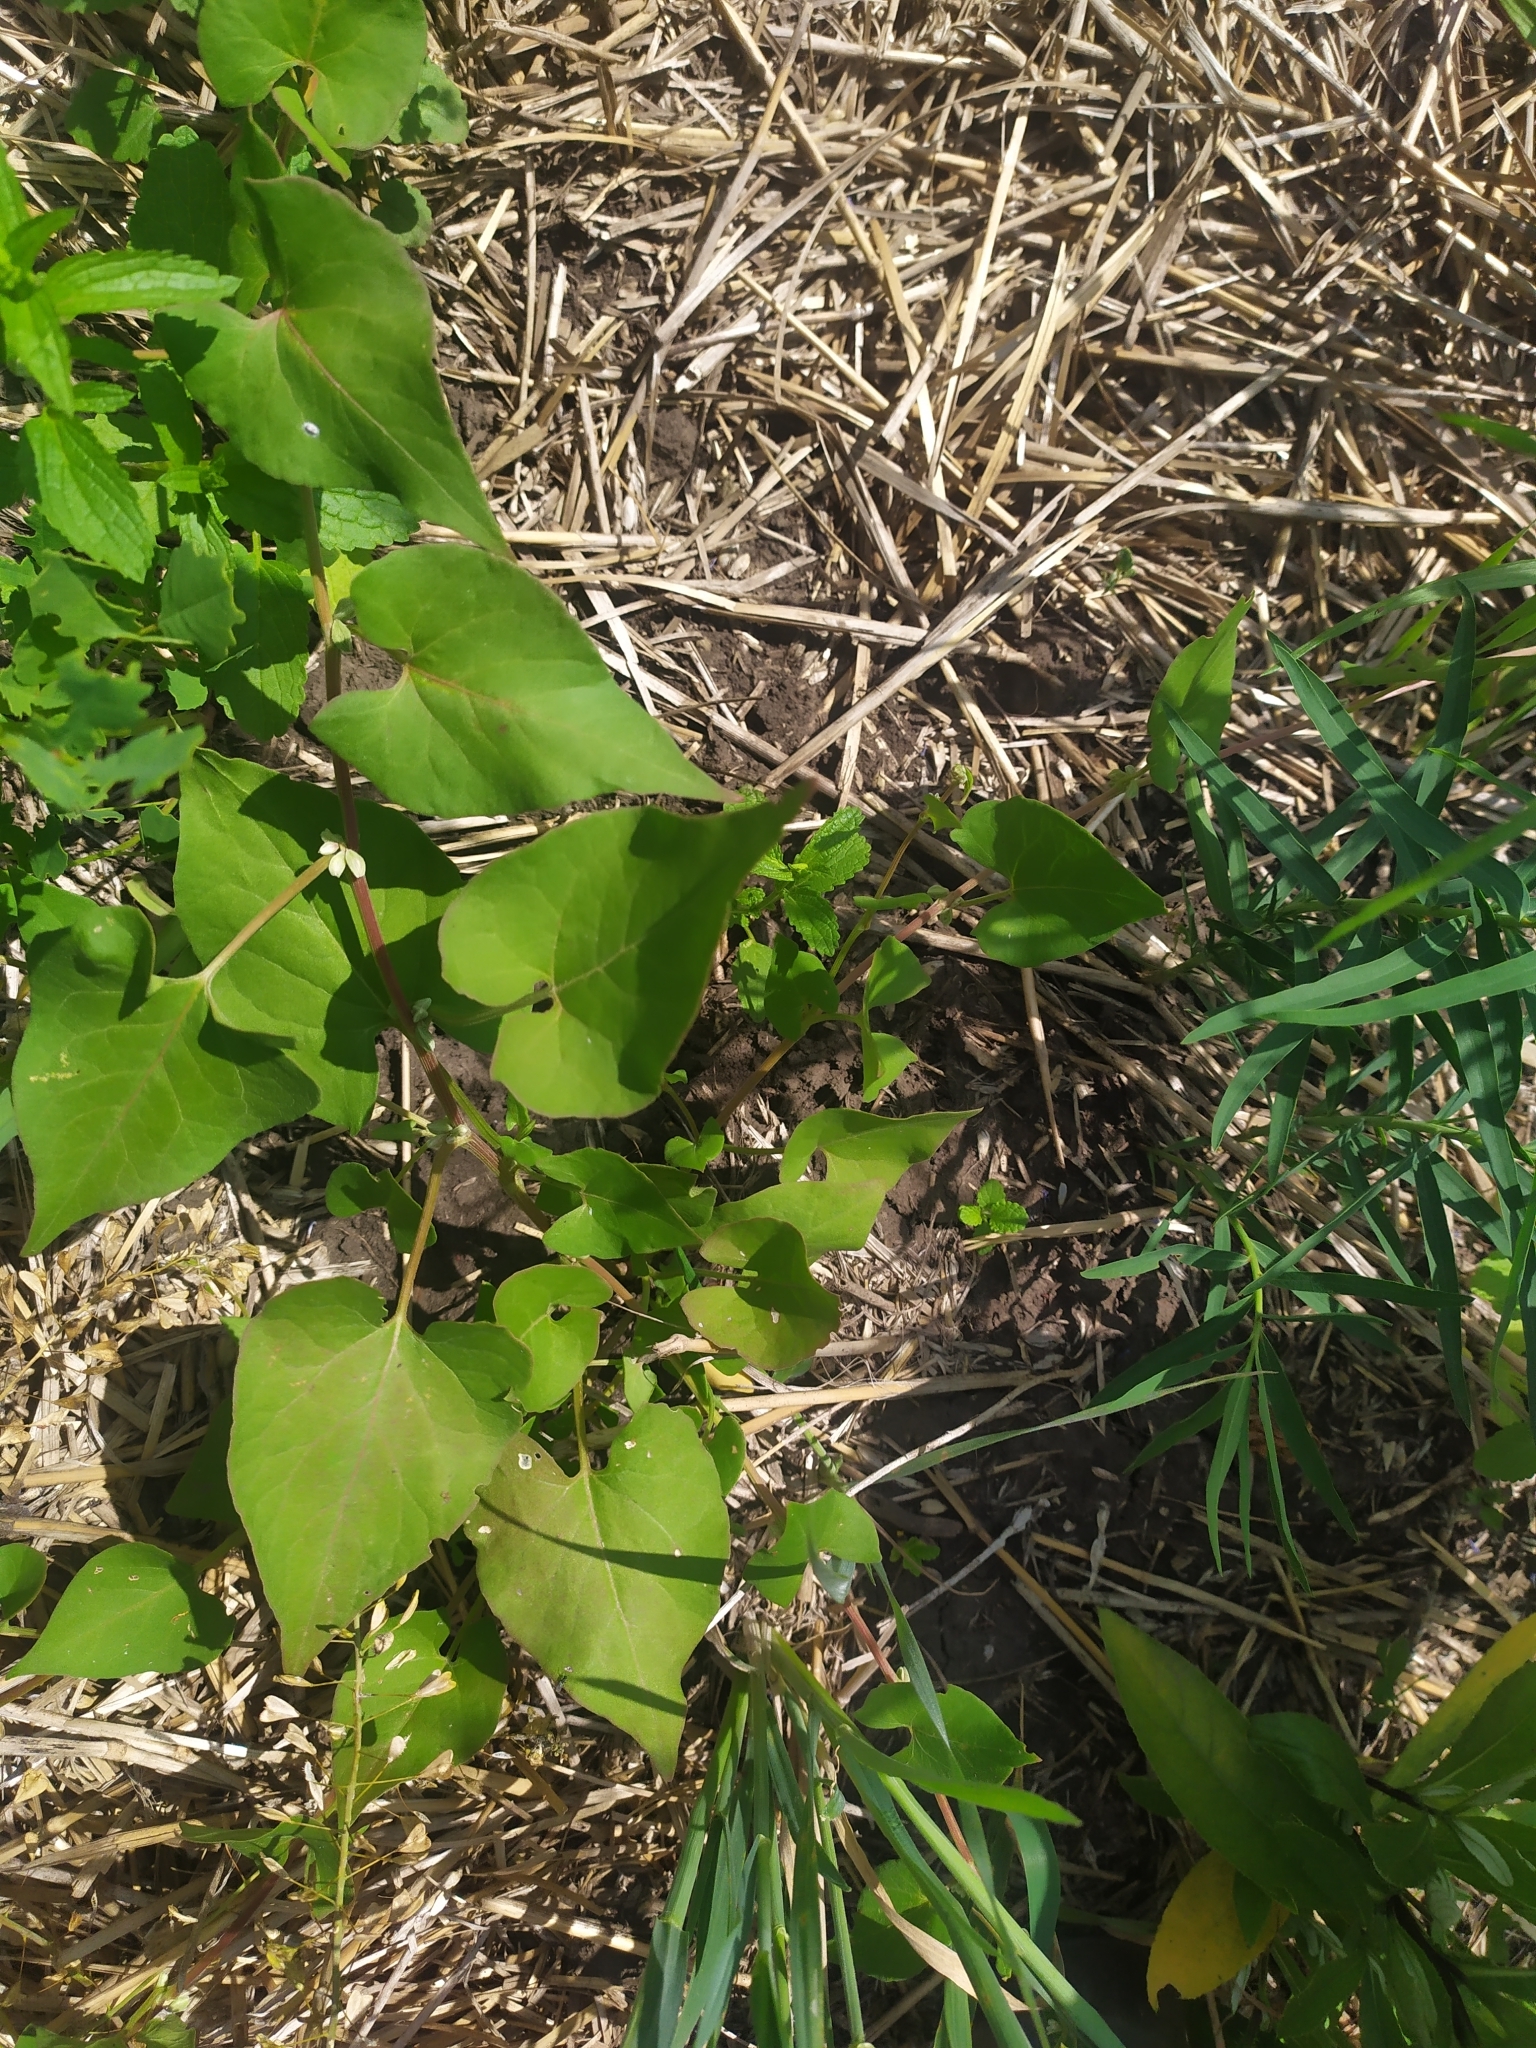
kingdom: Plantae
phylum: Tracheophyta
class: Magnoliopsida
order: Caryophyllales
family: Polygonaceae
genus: Fallopia
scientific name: Fallopia convolvulus
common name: Black bindweed
